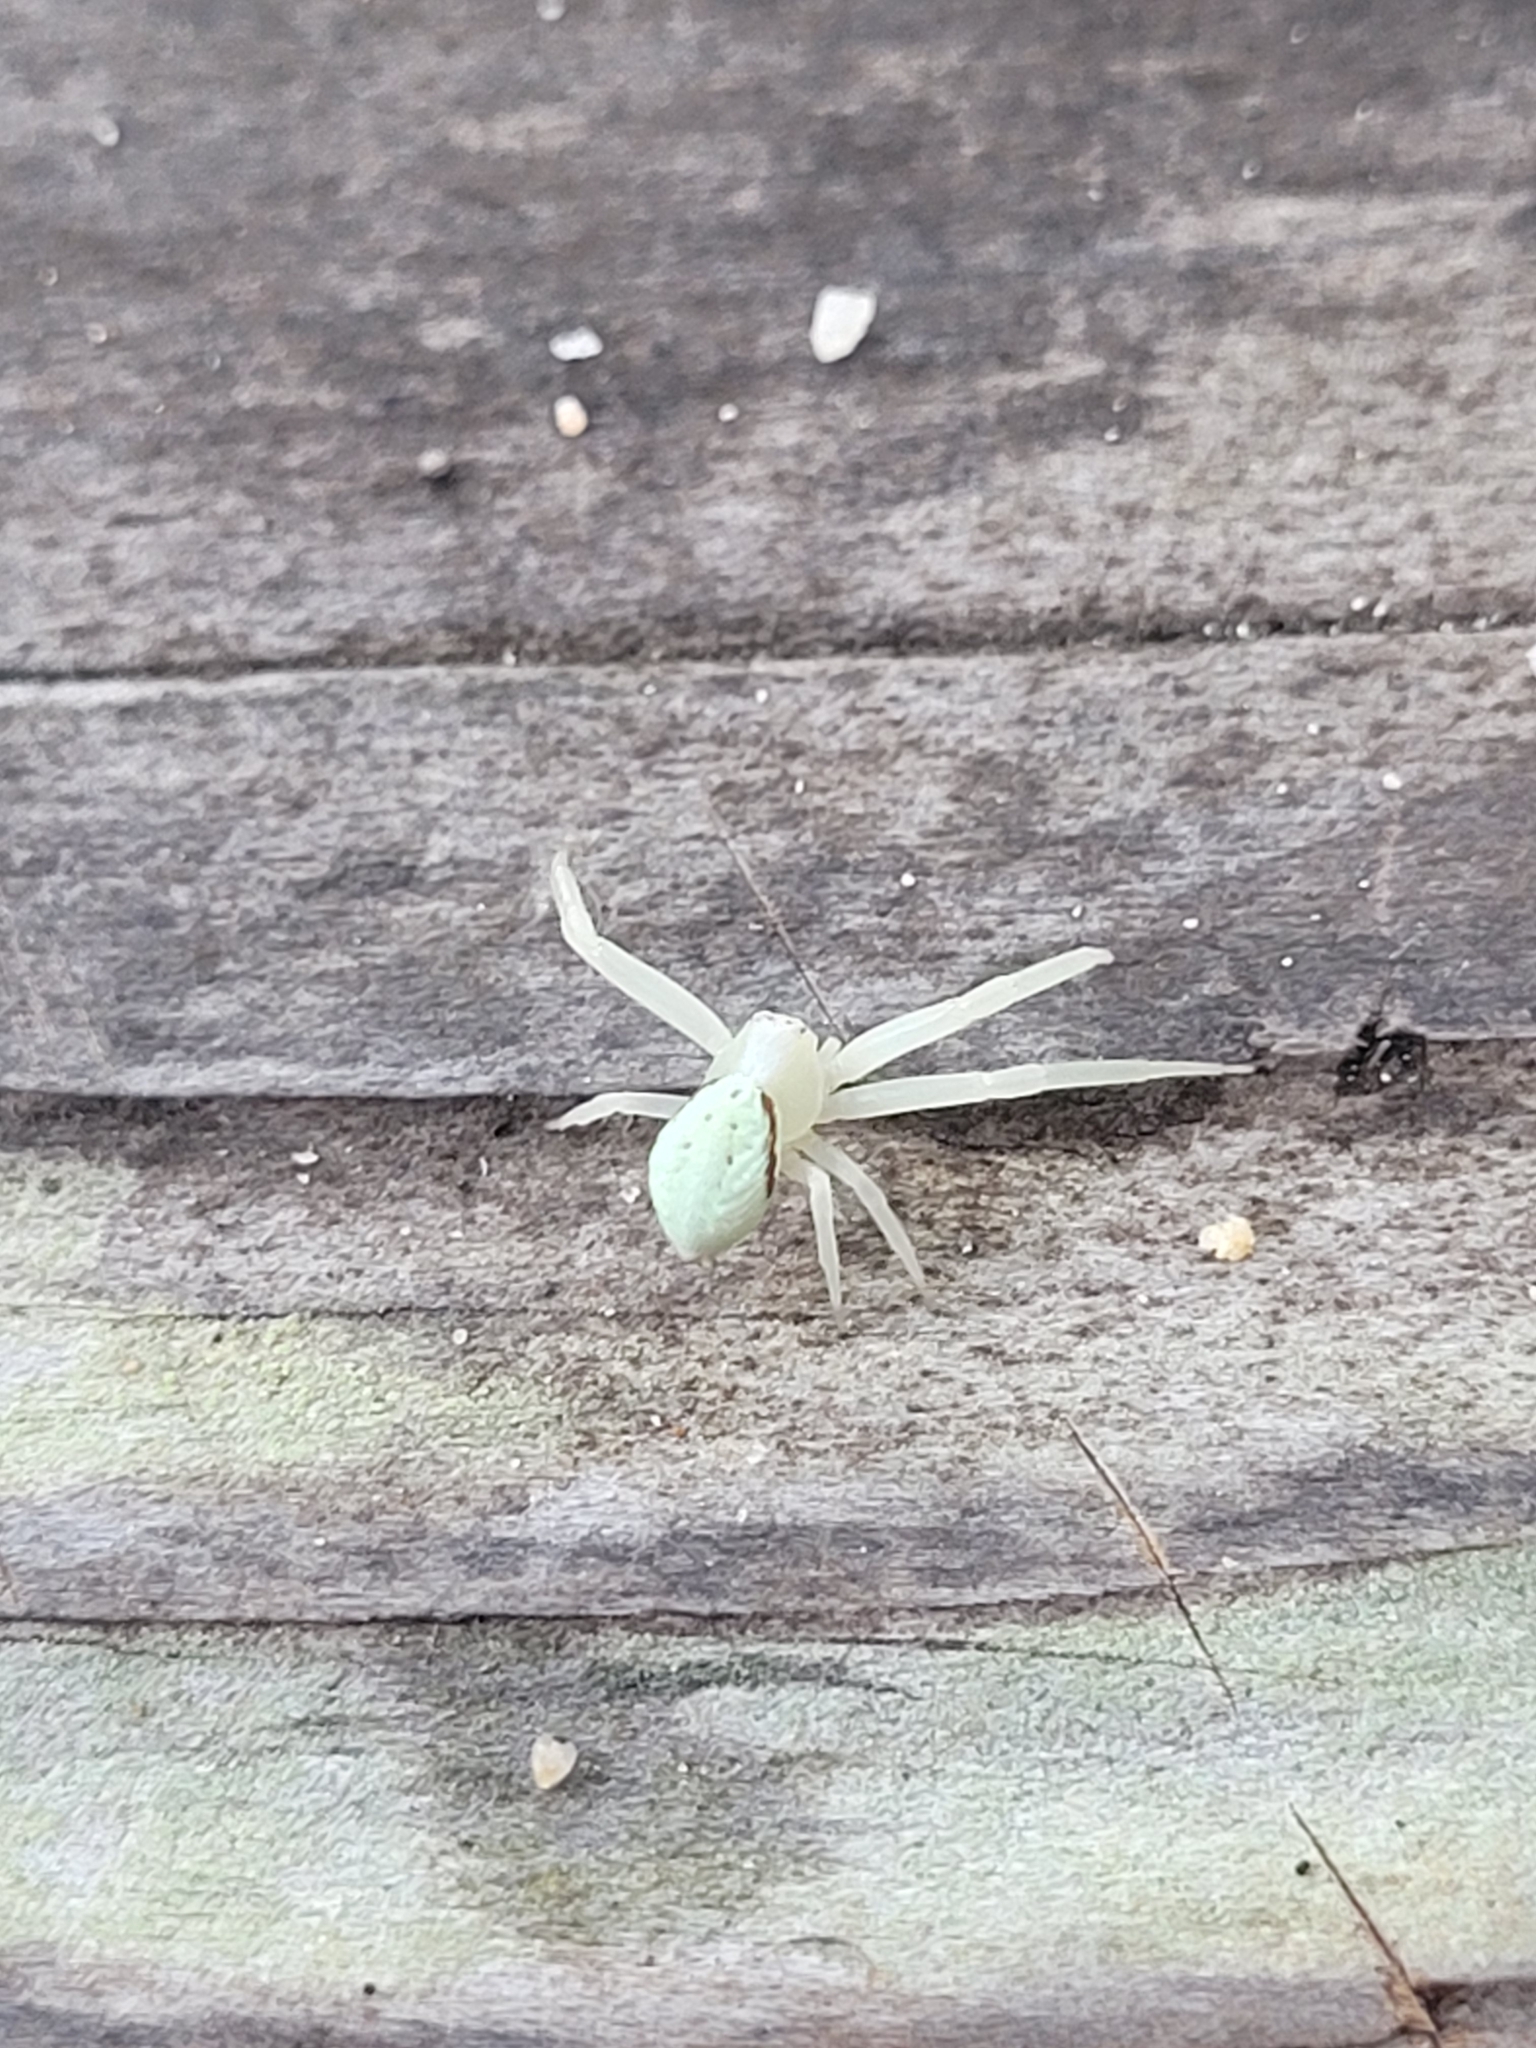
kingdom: Animalia
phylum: Arthropoda
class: Arachnida
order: Araneae
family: Thomisidae
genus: Misumena
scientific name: Misumena vatia
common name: Goldenrod crab spider
